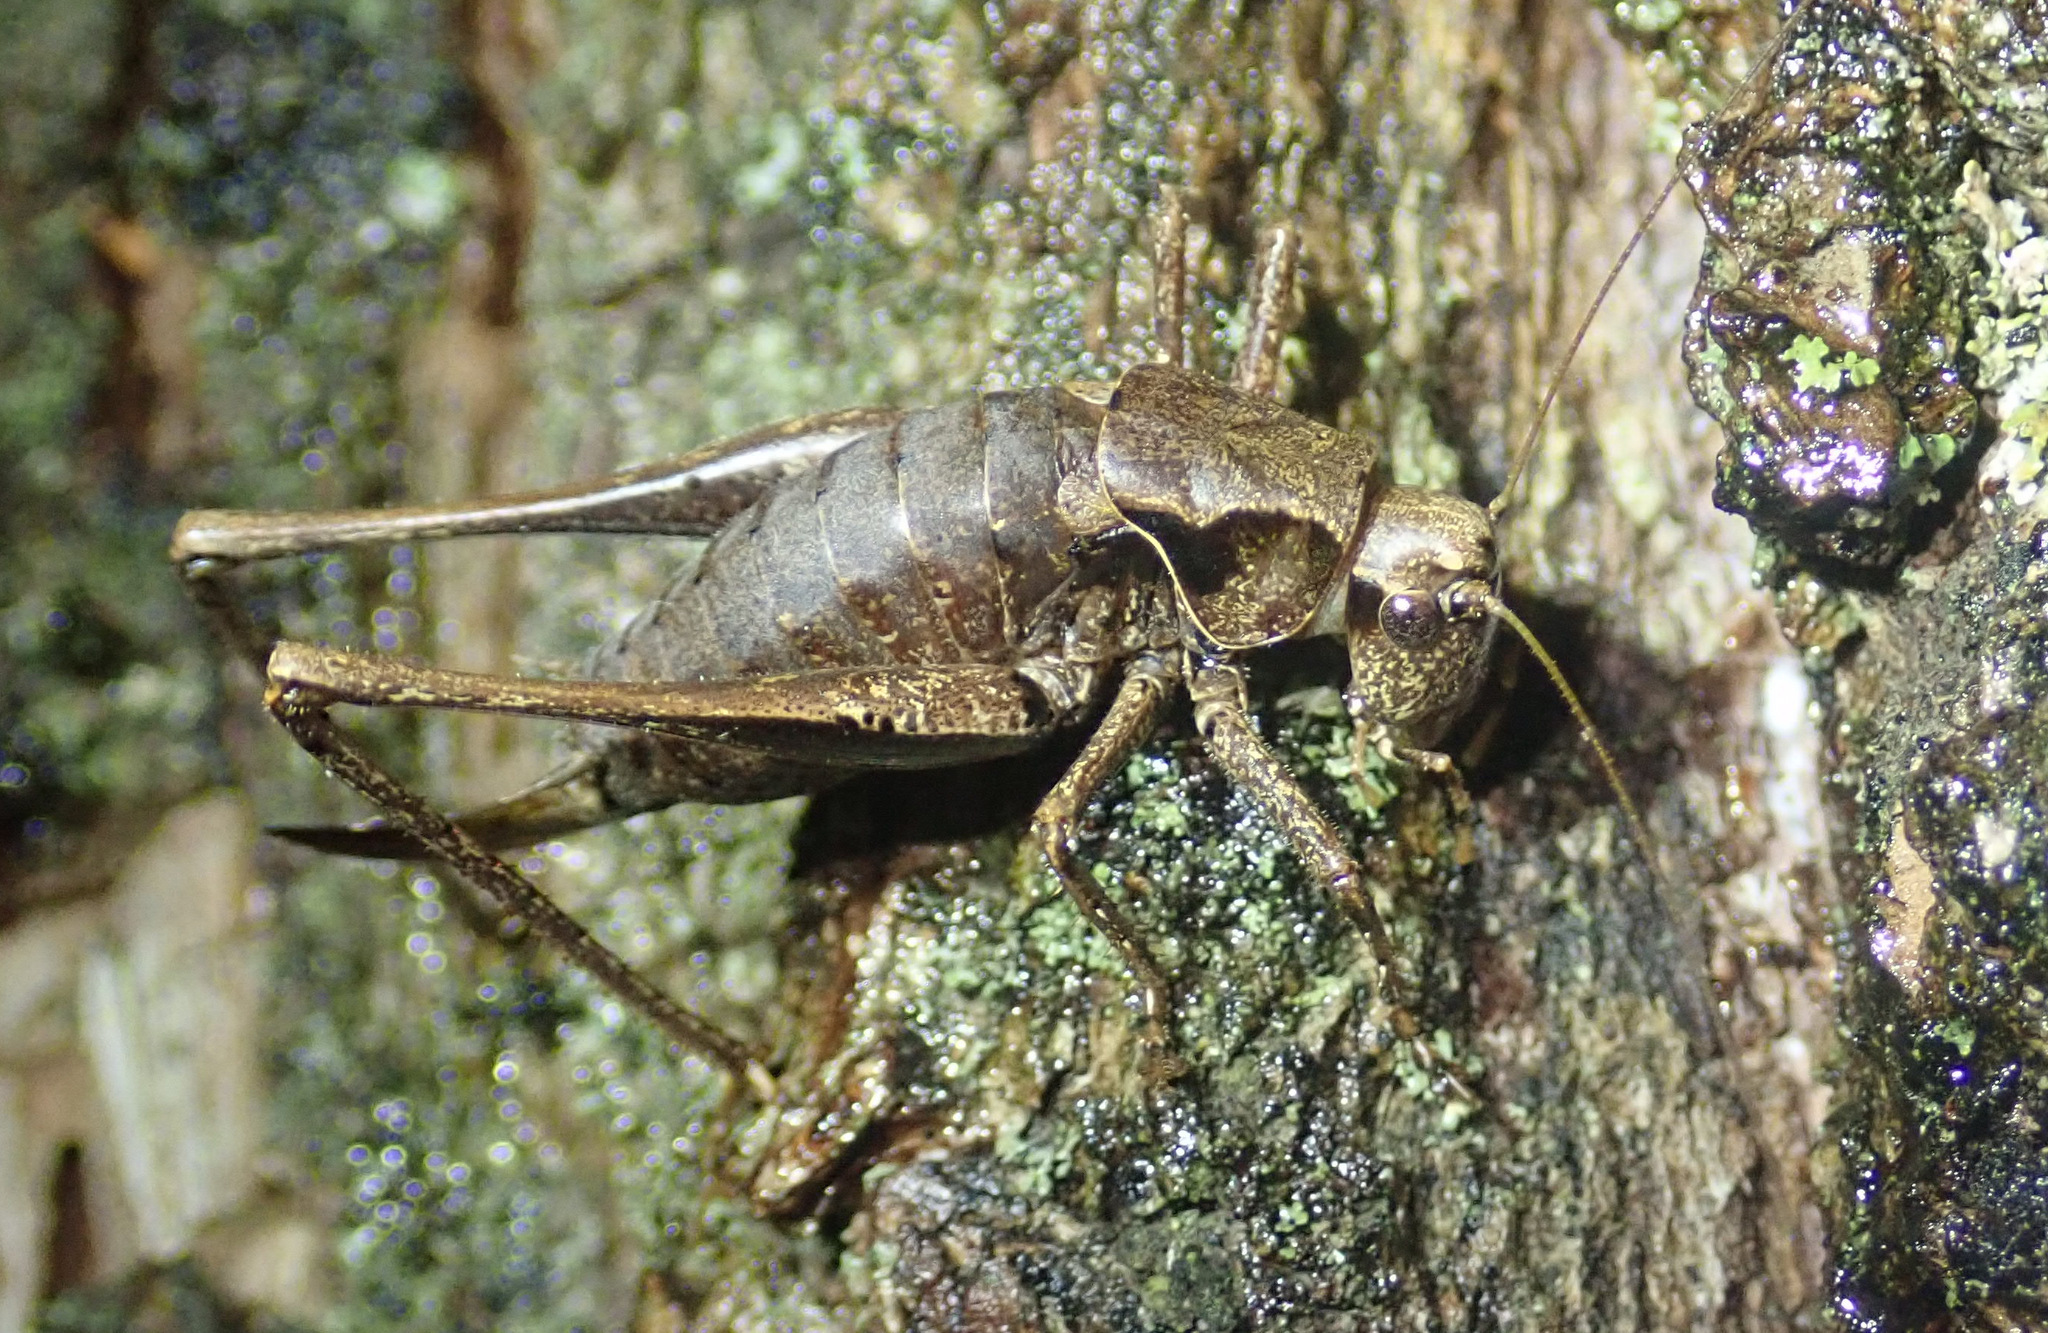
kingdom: Animalia
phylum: Arthropoda
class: Insecta
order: Orthoptera
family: Tettigoniidae
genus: Pholidoptera
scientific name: Pholidoptera griseoaptera
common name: Dark bush-cricket
